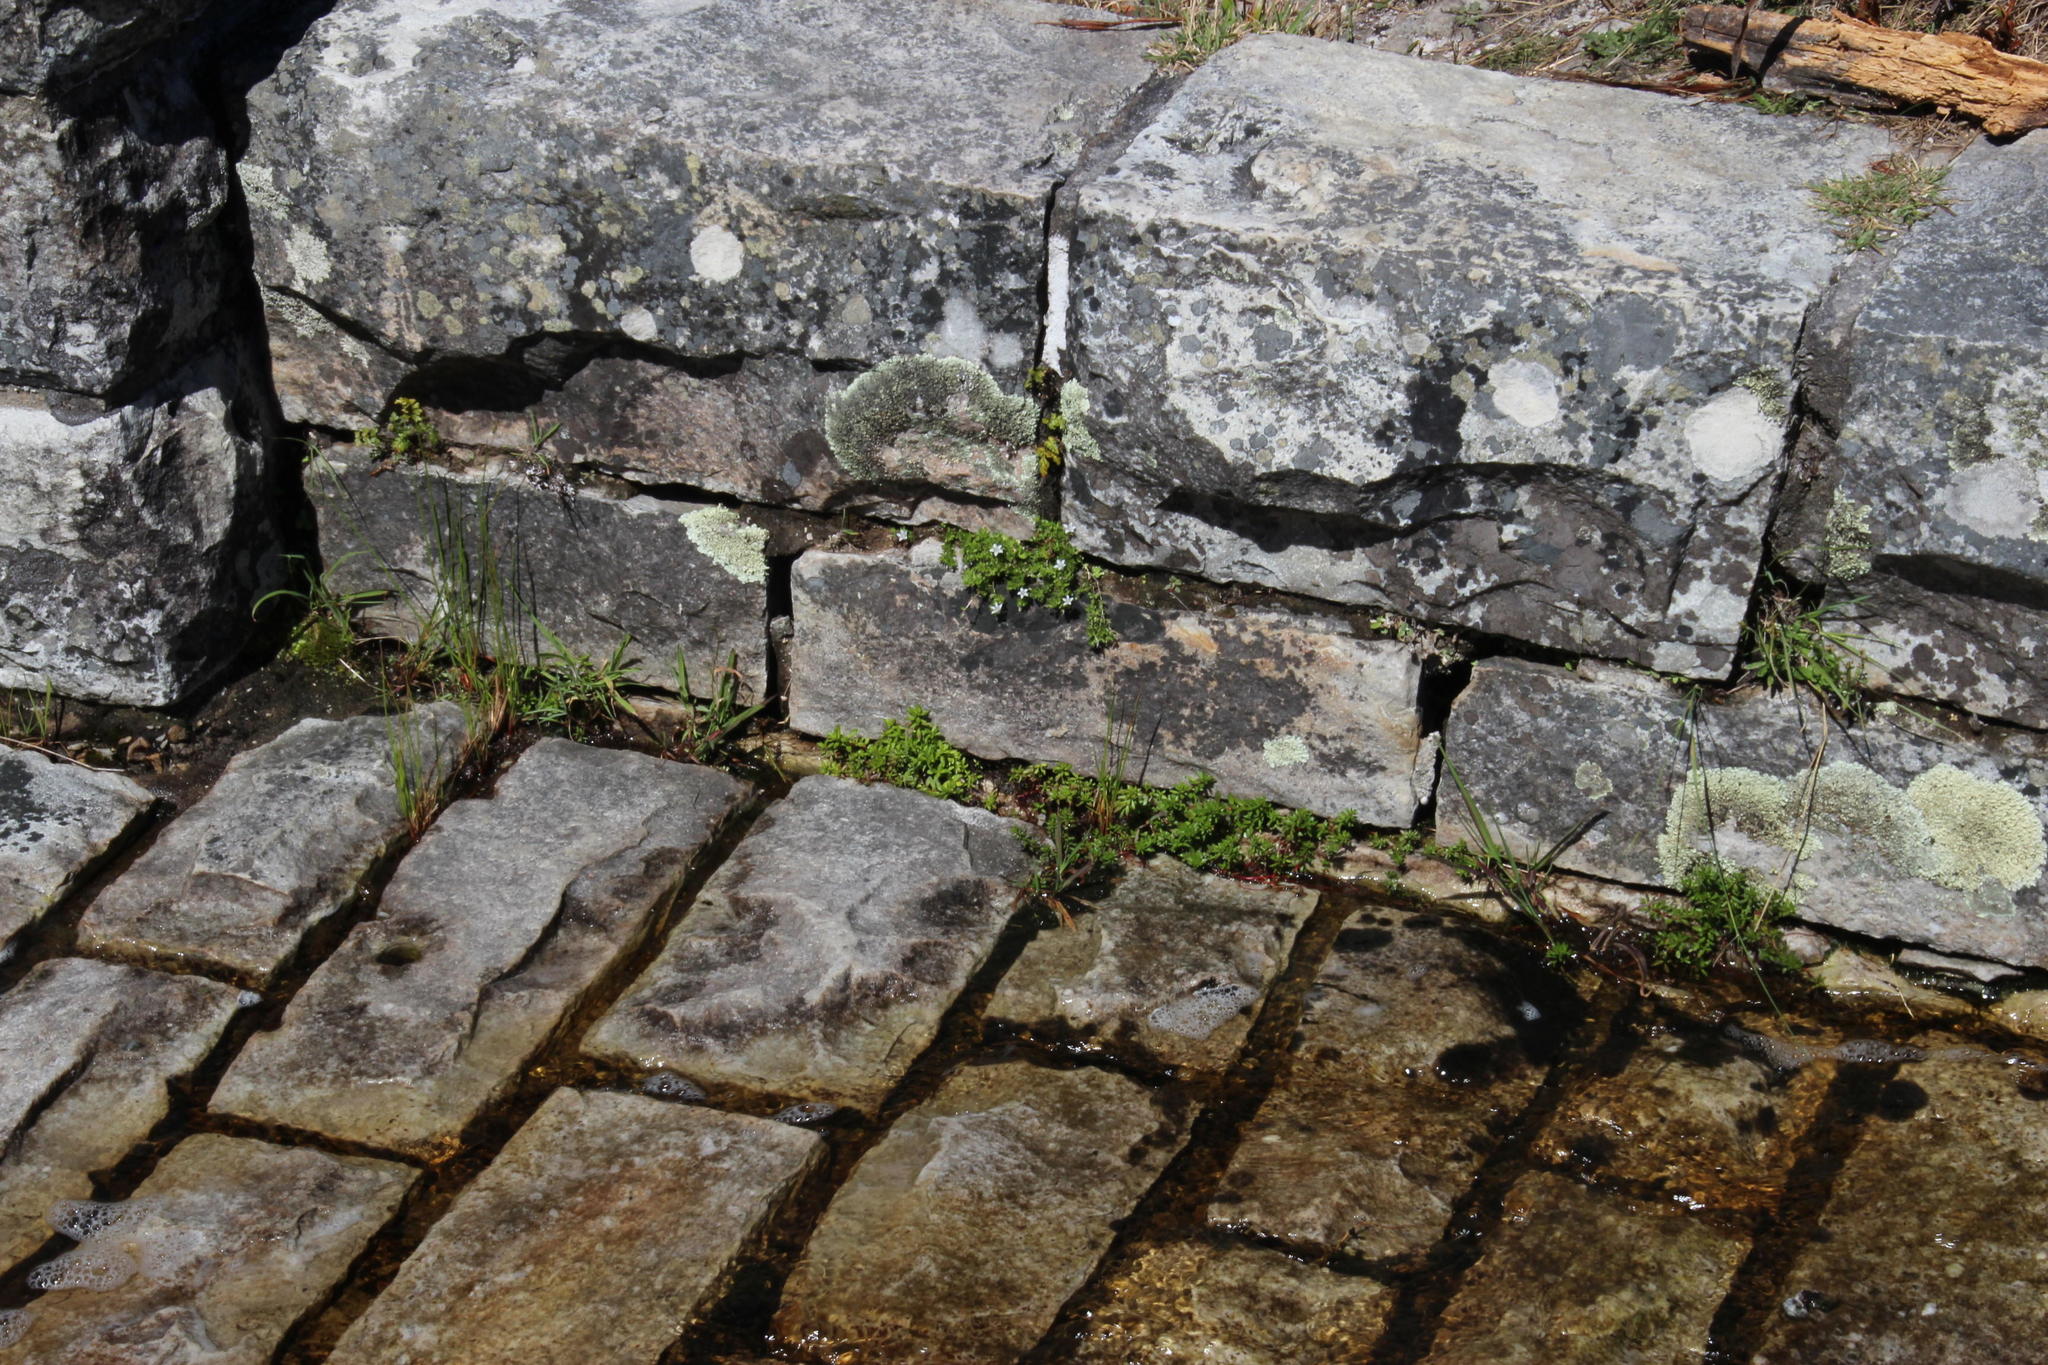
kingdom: Plantae
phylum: Tracheophyta
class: Magnoliopsida
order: Asterales
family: Campanulaceae
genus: Wahlenbergia
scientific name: Wahlenbergia procumbens
